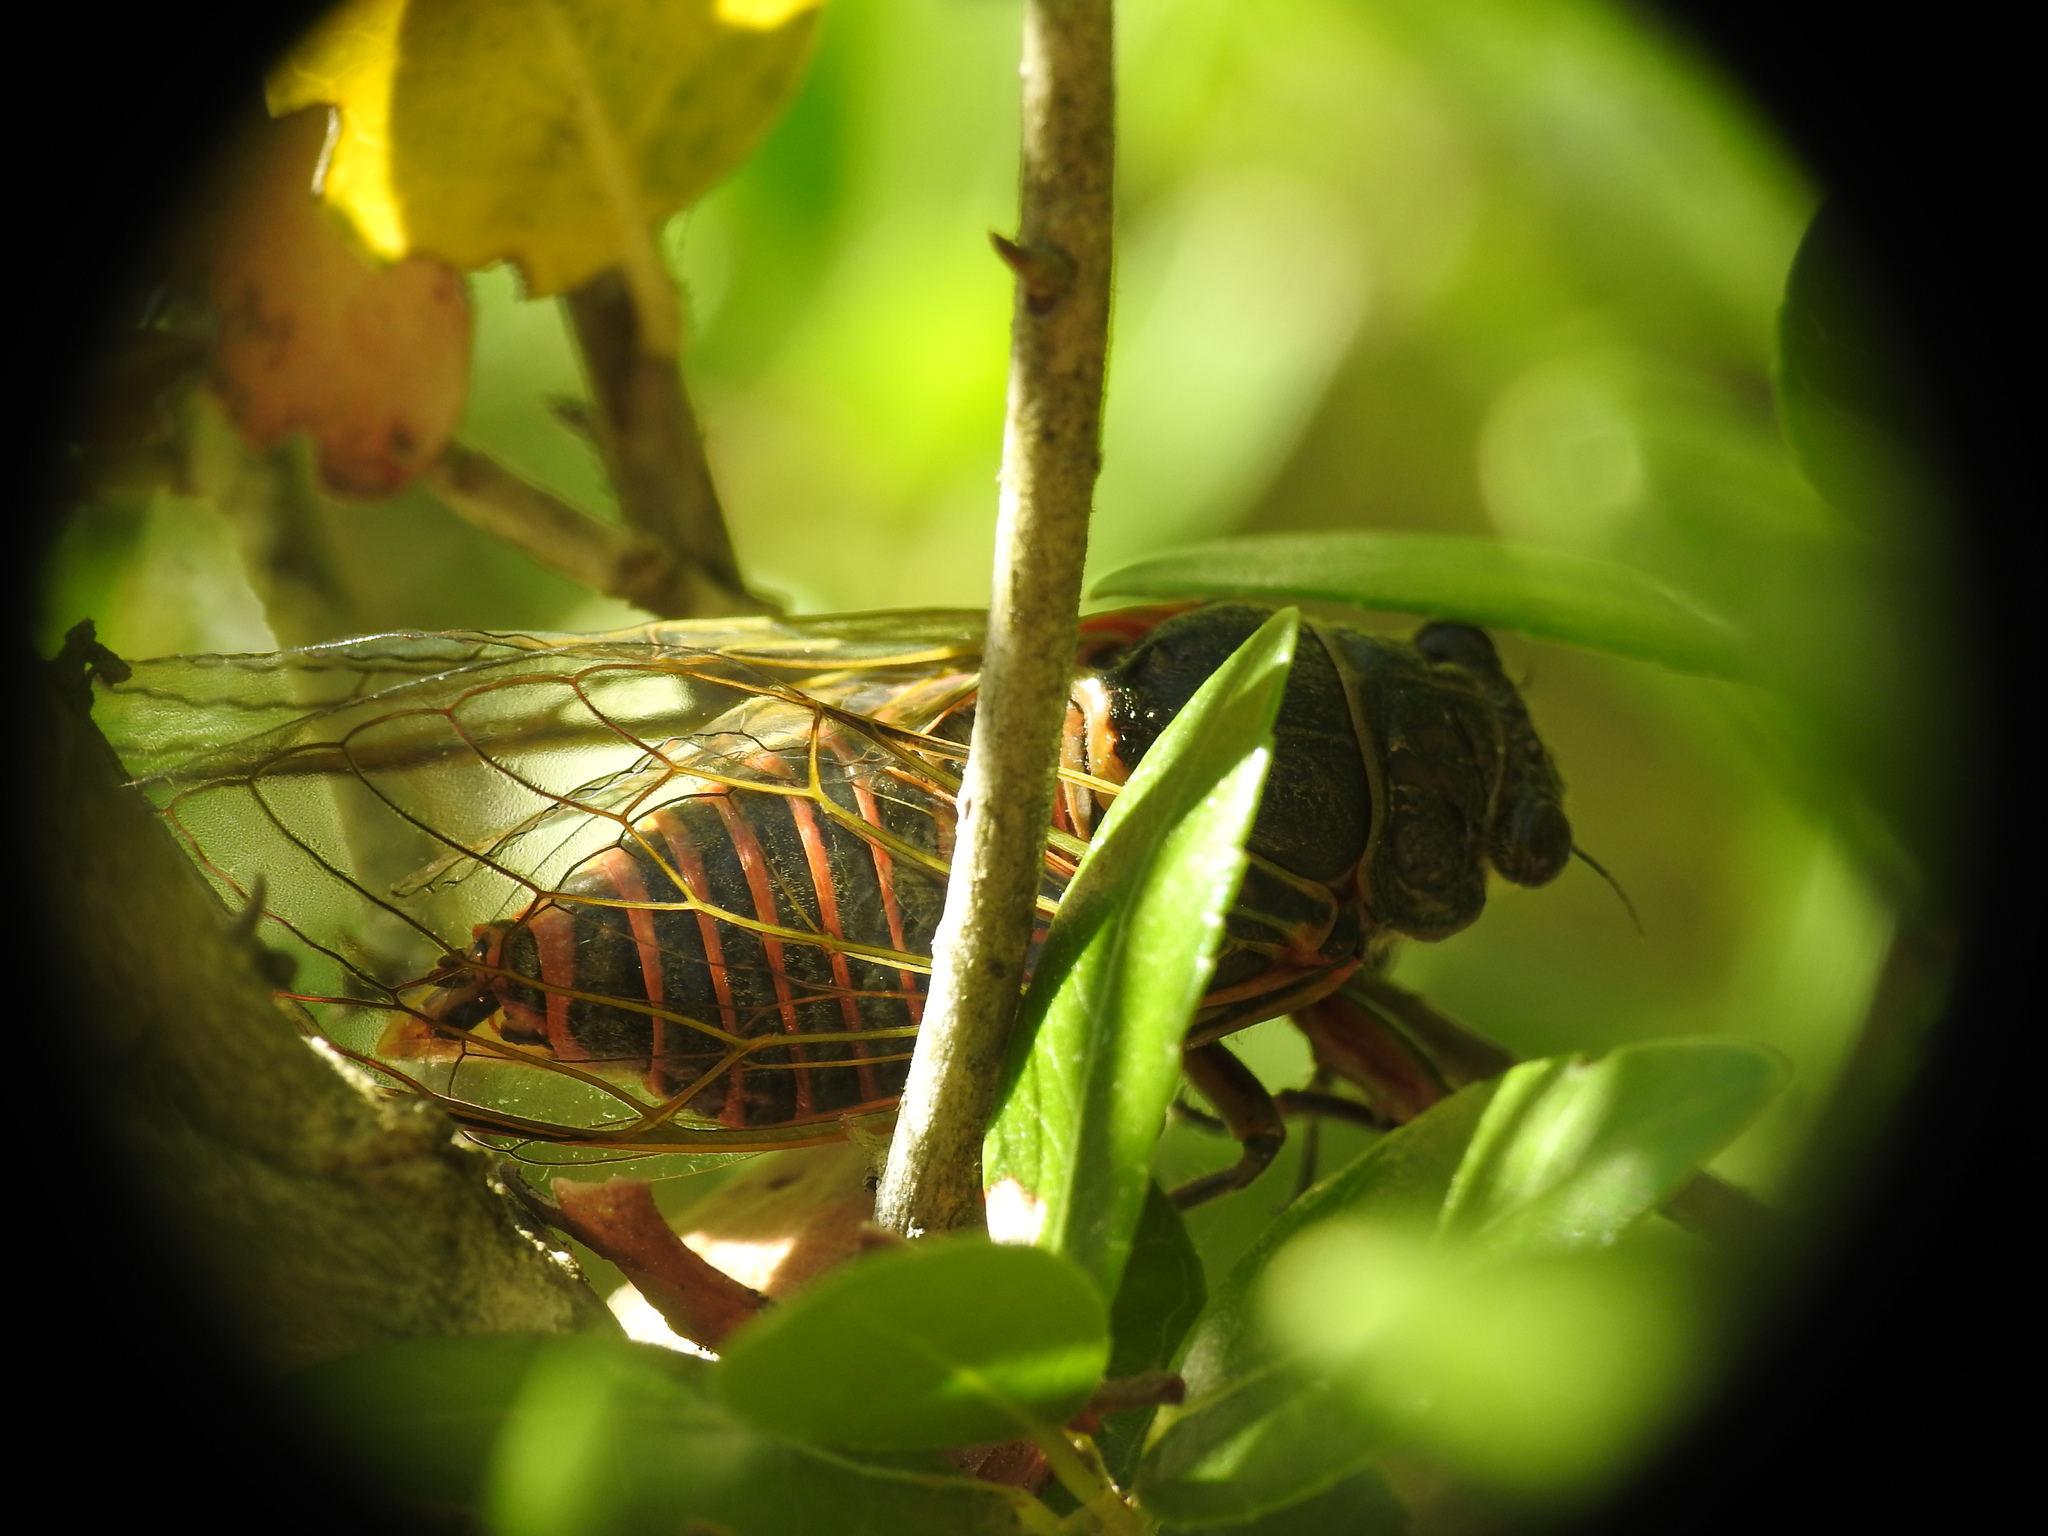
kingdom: Animalia
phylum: Arthropoda
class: Insecta
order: Hemiptera
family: Cicadidae
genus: Tibicina
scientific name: Tibicina haematodes
